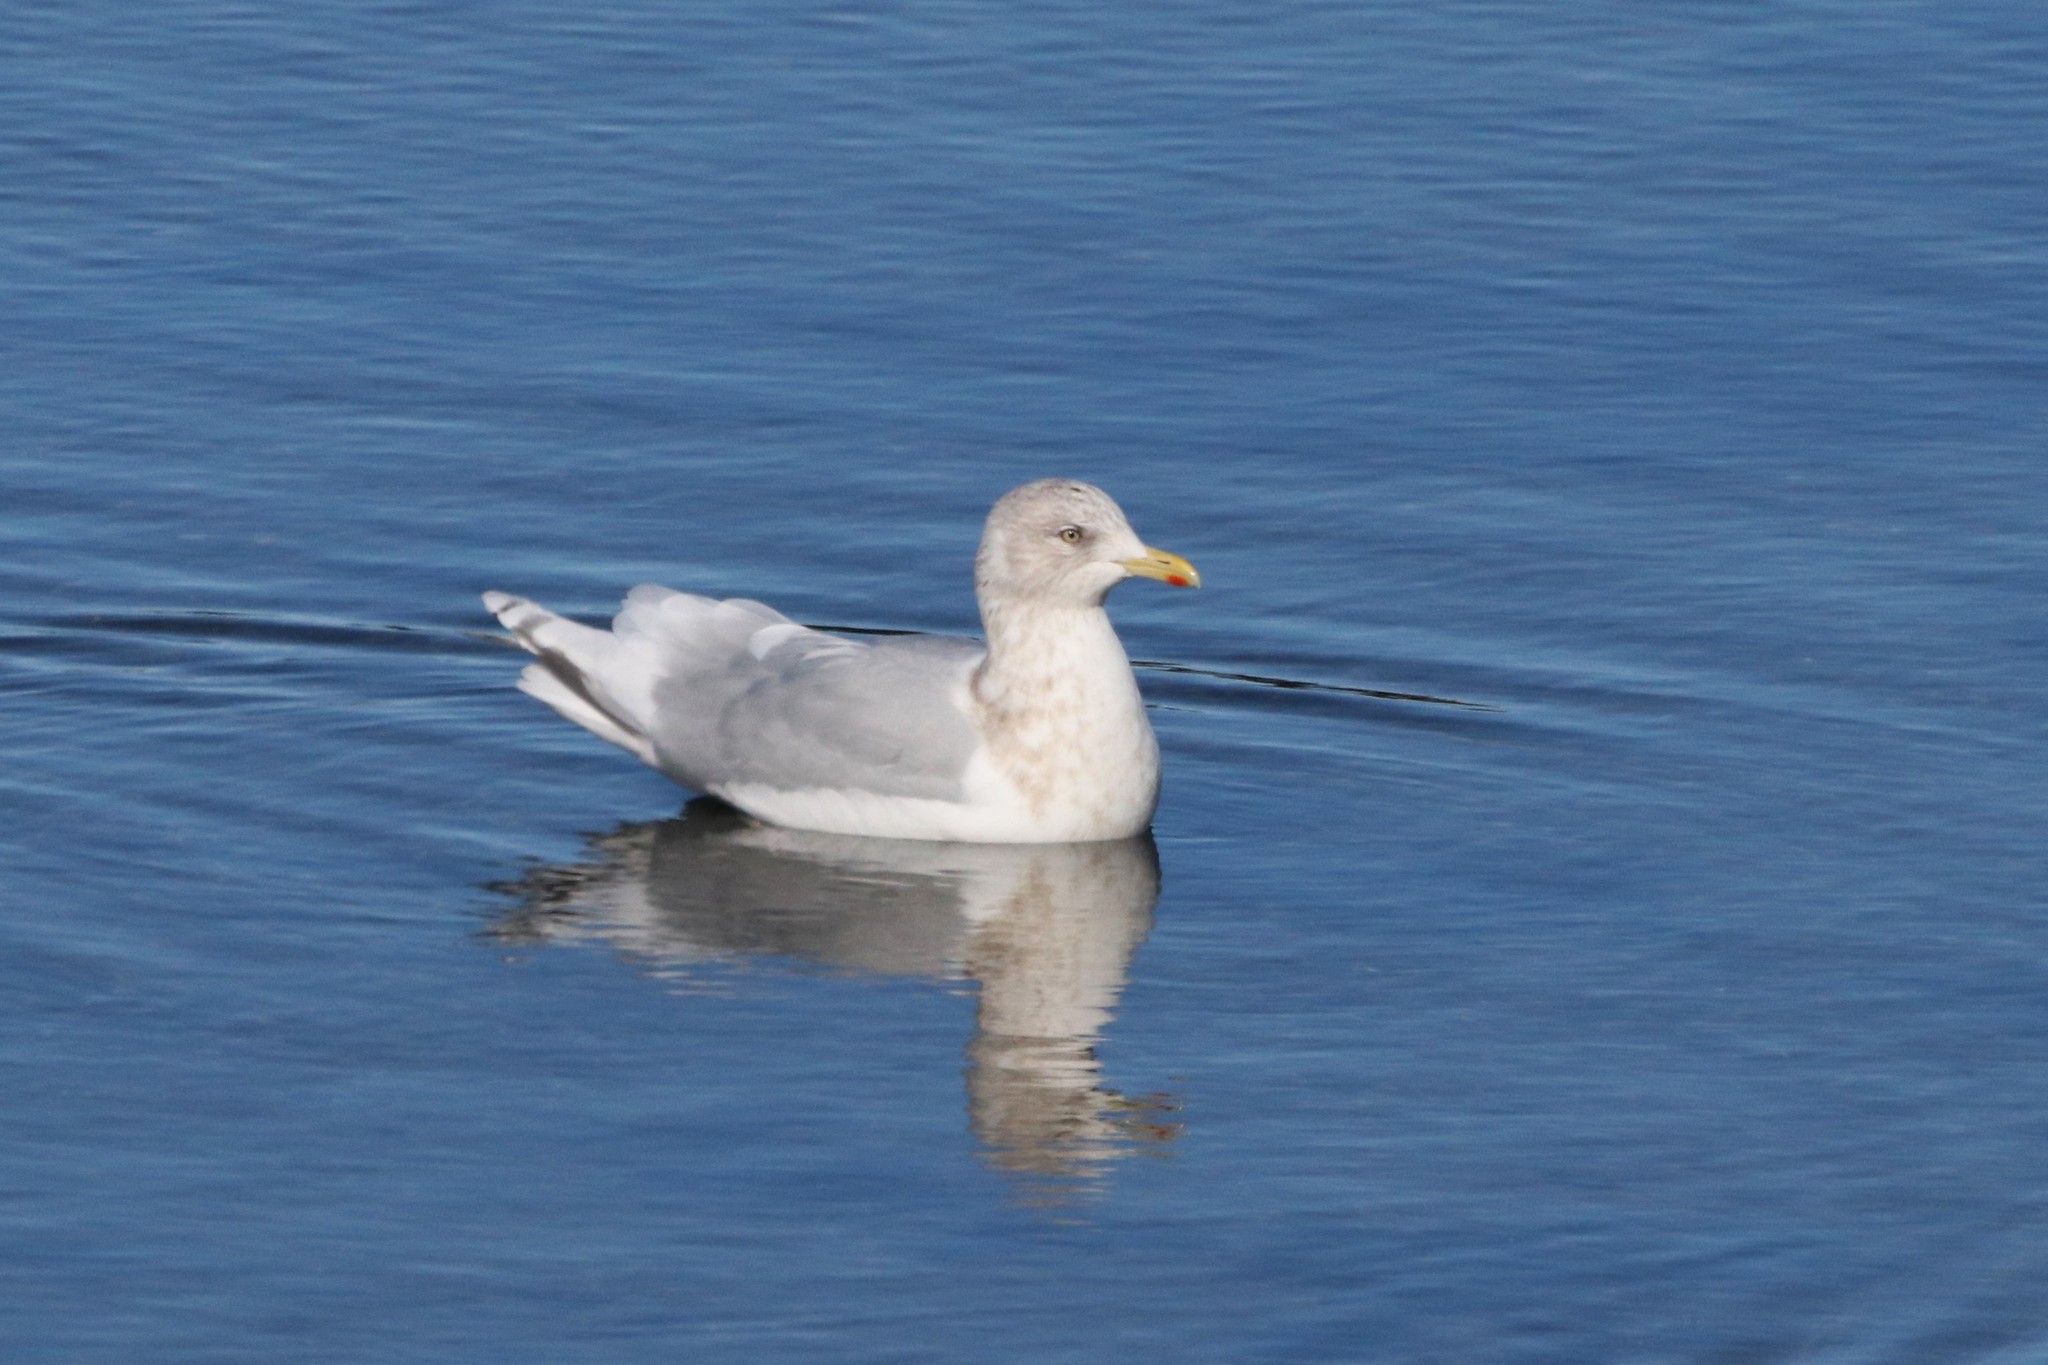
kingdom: Animalia
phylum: Chordata
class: Aves
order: Charadriiformes
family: Laridae
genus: Larus
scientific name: Larus glaucoides
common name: Iceland gull
